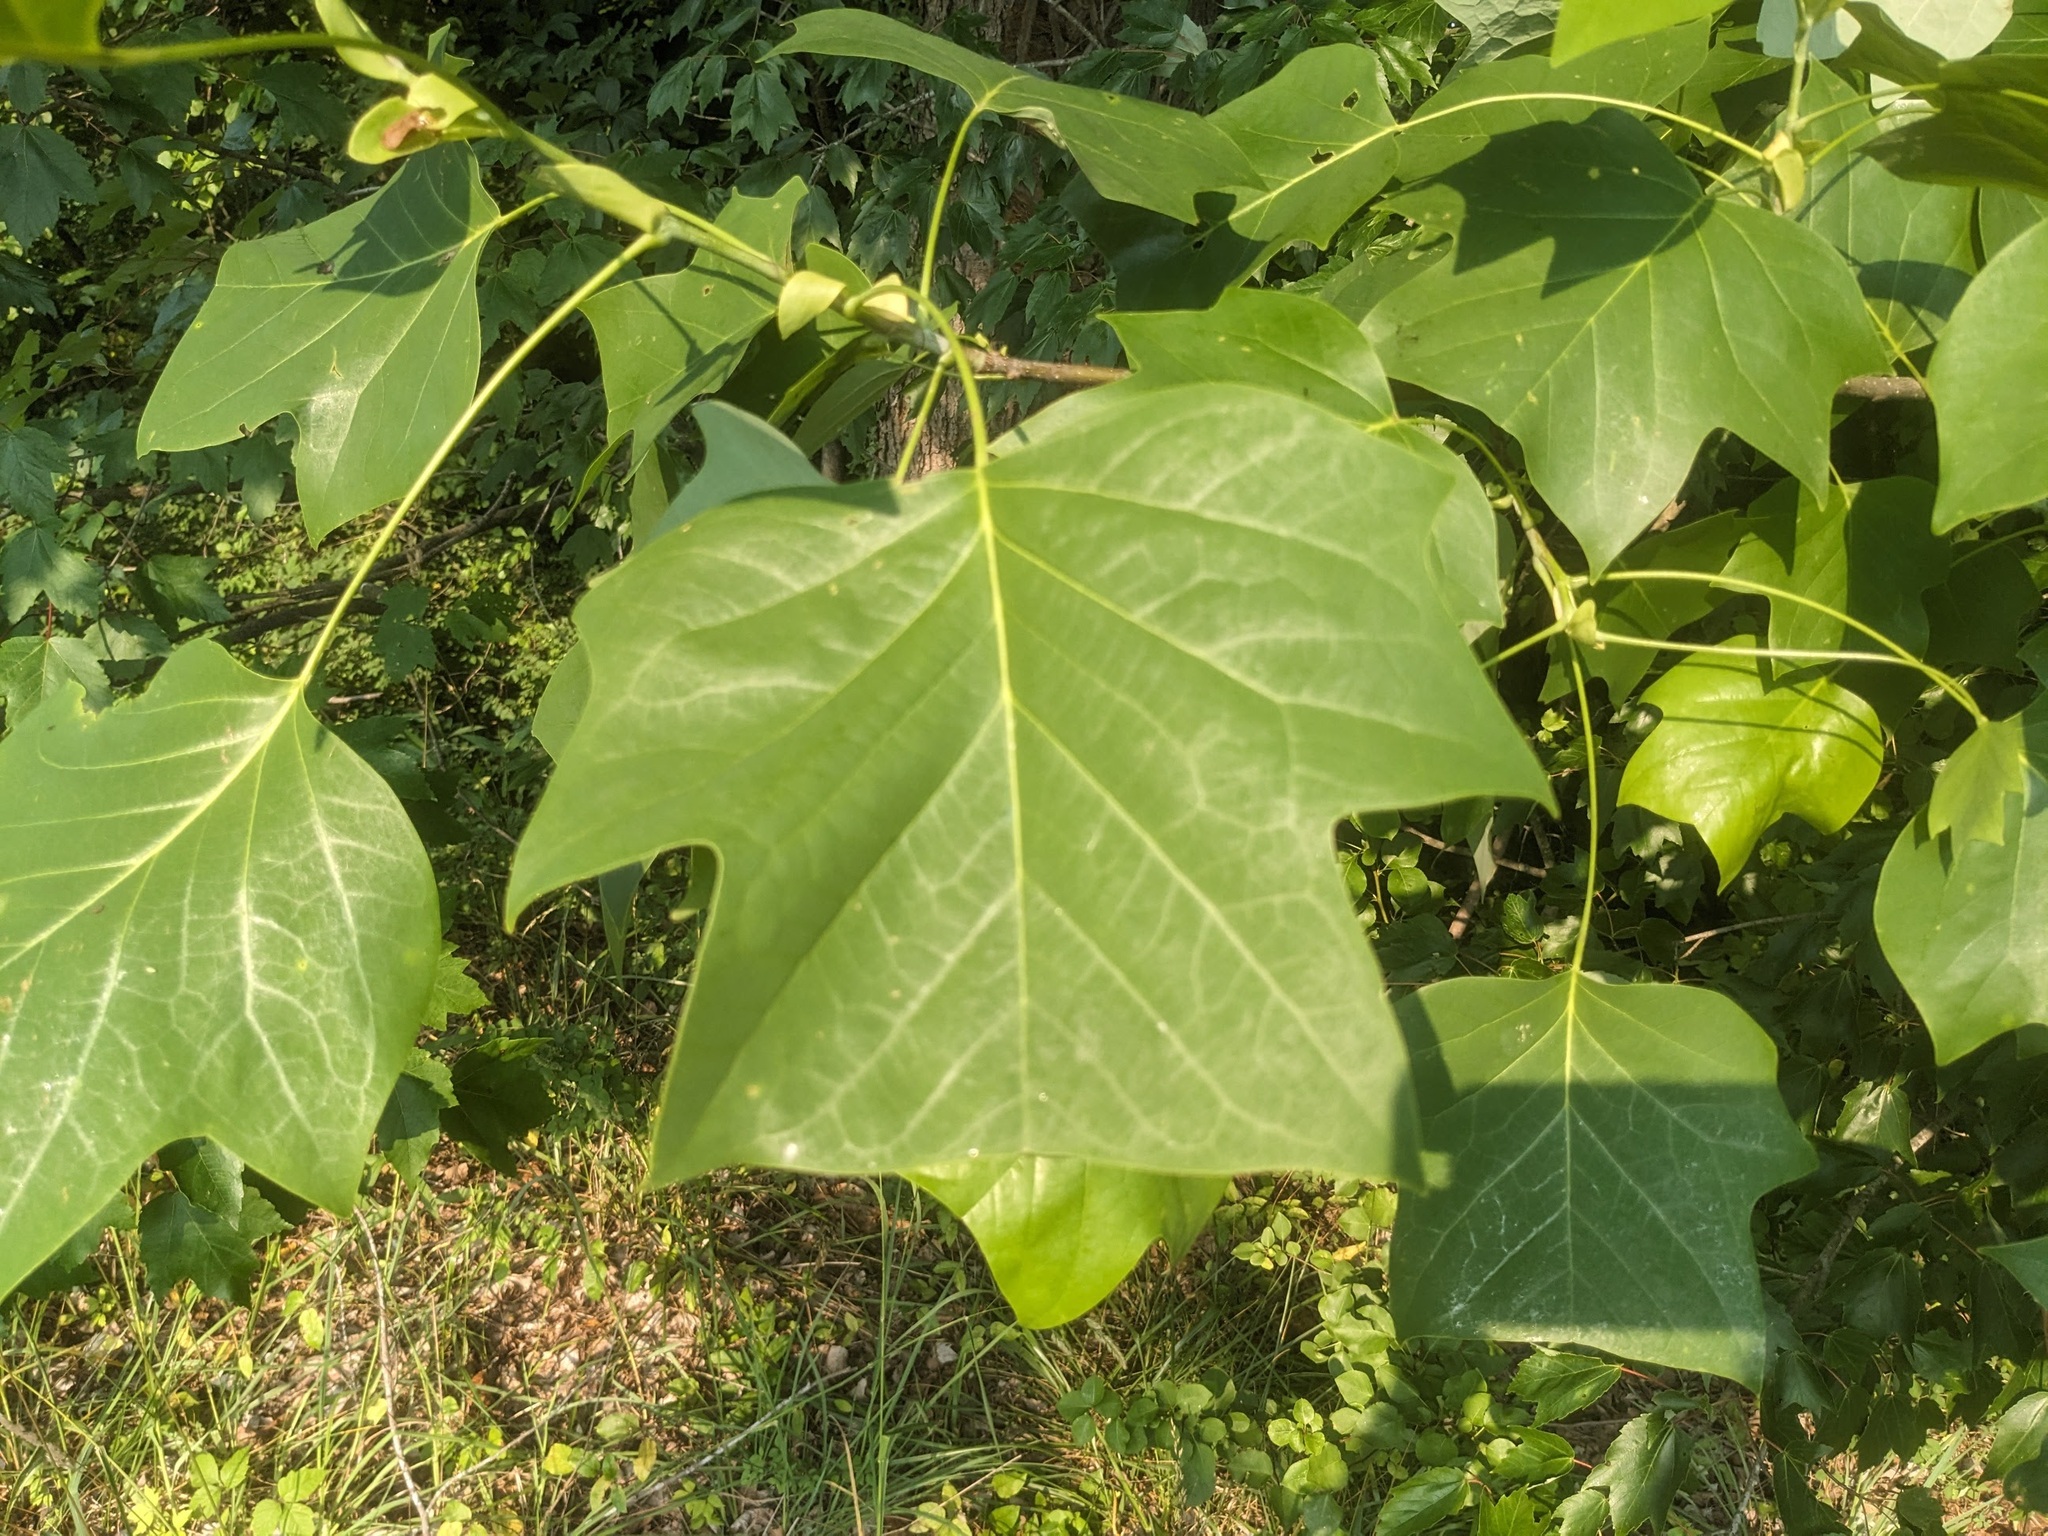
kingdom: Plantae
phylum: Tracheophyta
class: Magnoliopsida
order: Magnoliales
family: Magnoliaceae
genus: Liriodendron
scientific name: Liriodendron tulipifera
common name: Tulip tree
